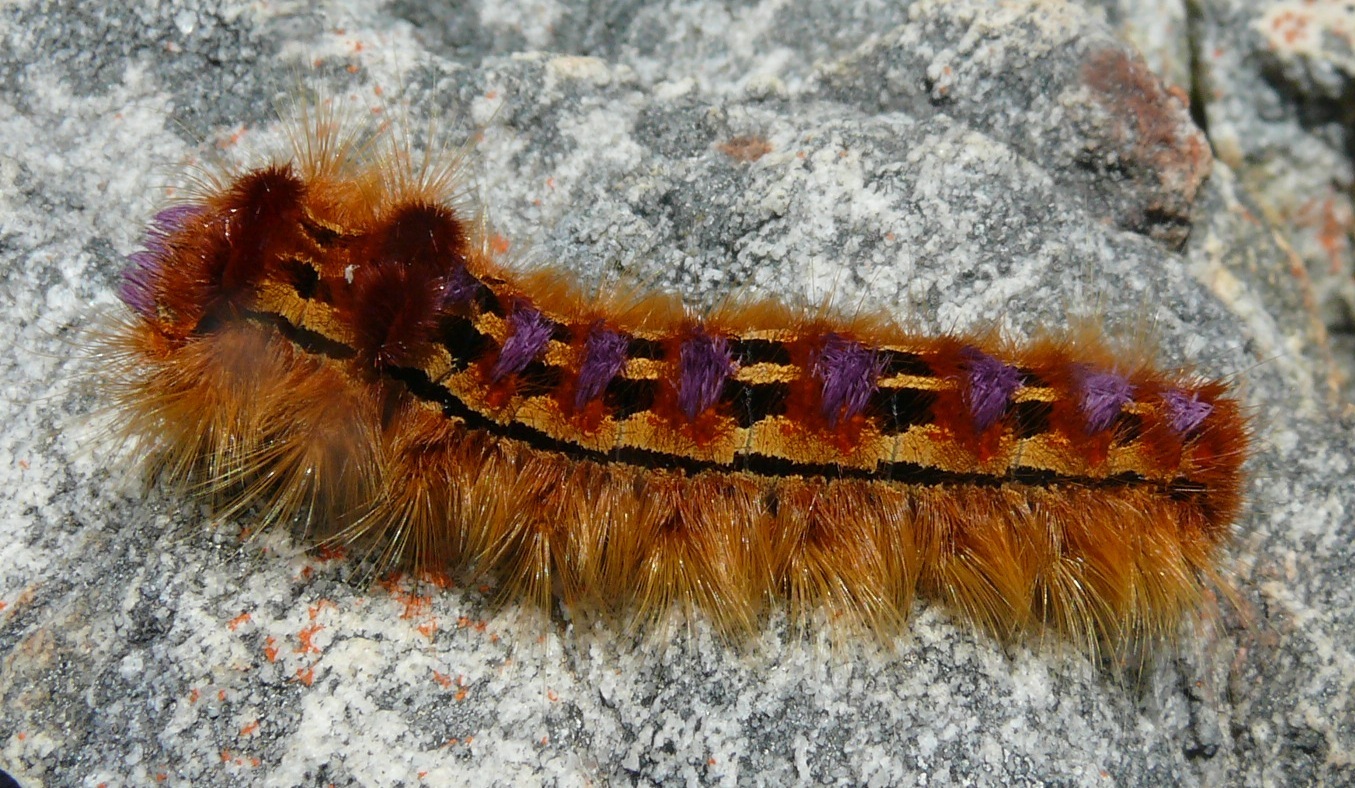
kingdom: Animalia
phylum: Arthropoda
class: Insecta
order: Lepidoptera
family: Lasiocampidae
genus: Eutricha
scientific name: Eutricha bifascia
